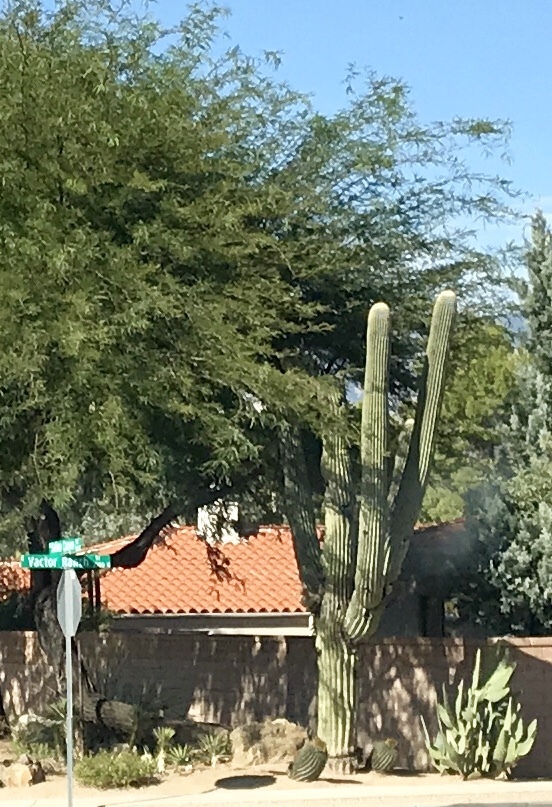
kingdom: Plantae
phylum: Tracheophyta
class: Magnoliopsida
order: Caryophyllales
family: Cactaceae
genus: Carnegiea
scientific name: Carnegiea gigantea
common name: Saguaro
